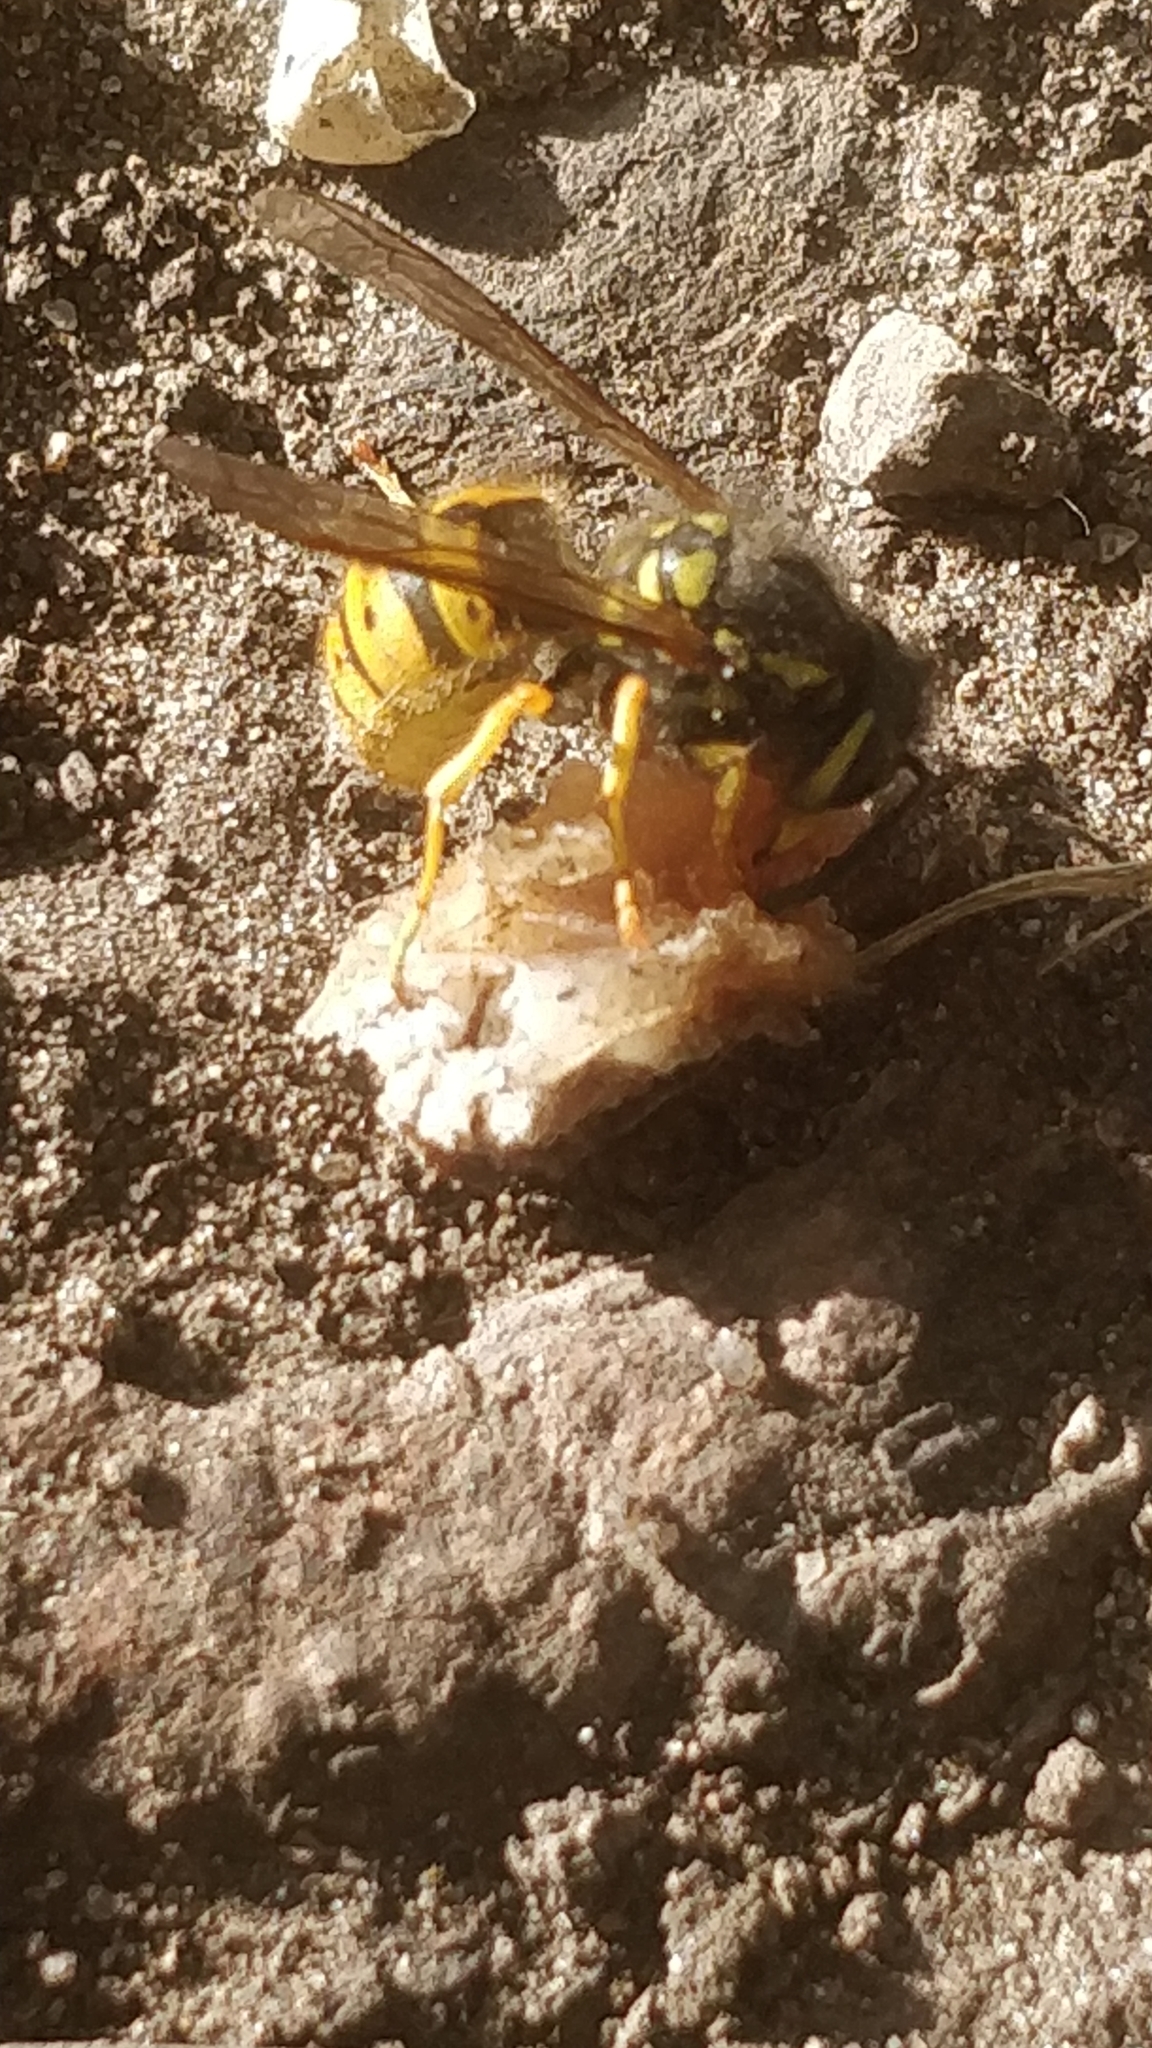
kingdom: Animalia
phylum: Arthropoda
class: Insecta
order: Hymenoptera
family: Vespidae
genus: Vespula
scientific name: Vespula germanica
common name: German wasp
